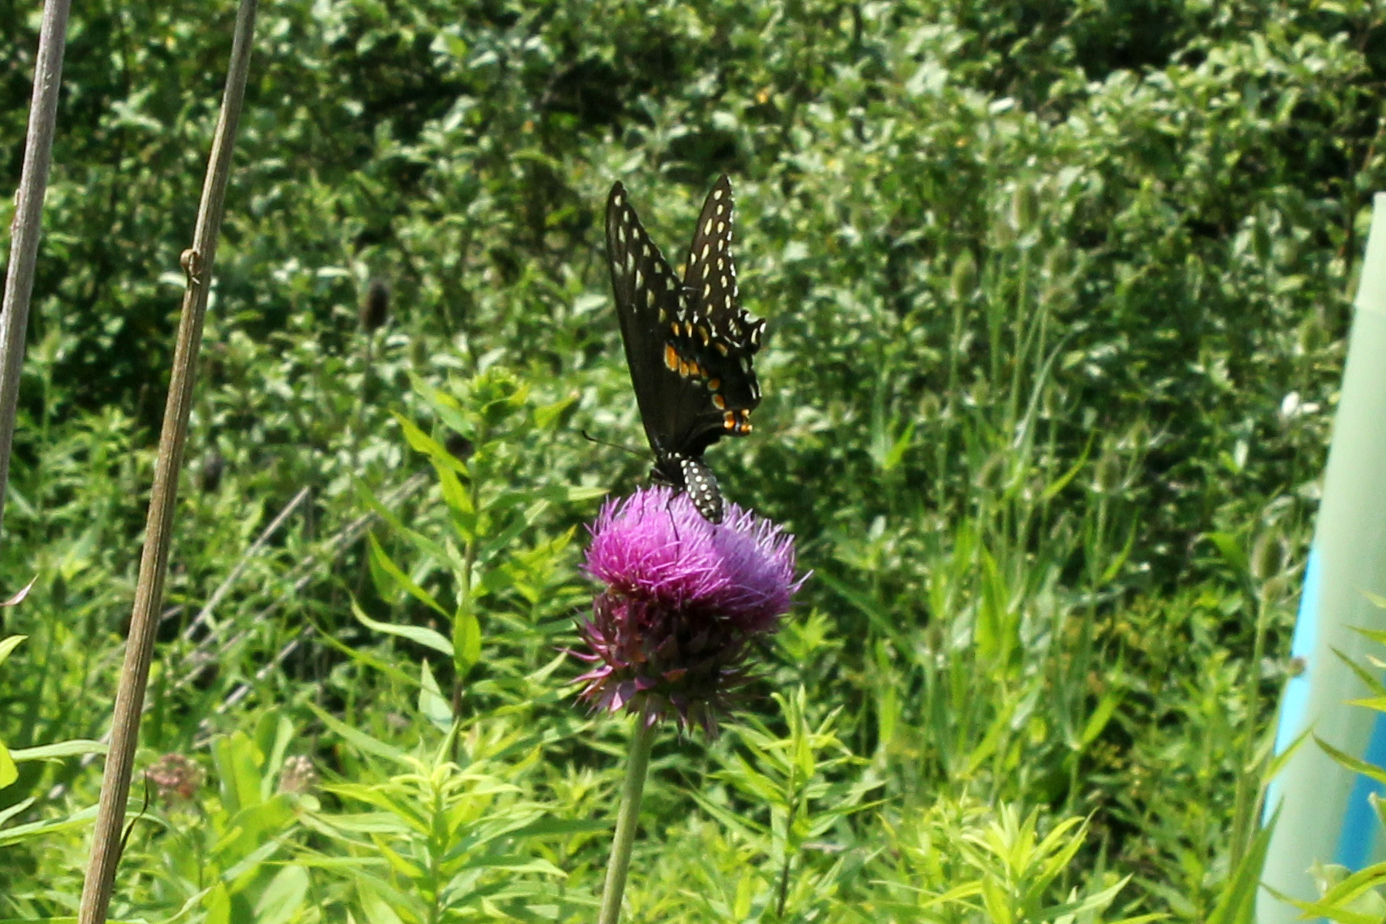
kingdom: Animalia
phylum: Arthropoda
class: Insecta
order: Lepidoptera
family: Papilionidae
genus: Papilio
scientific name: Papilio polyxenes
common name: Black swallowtail
